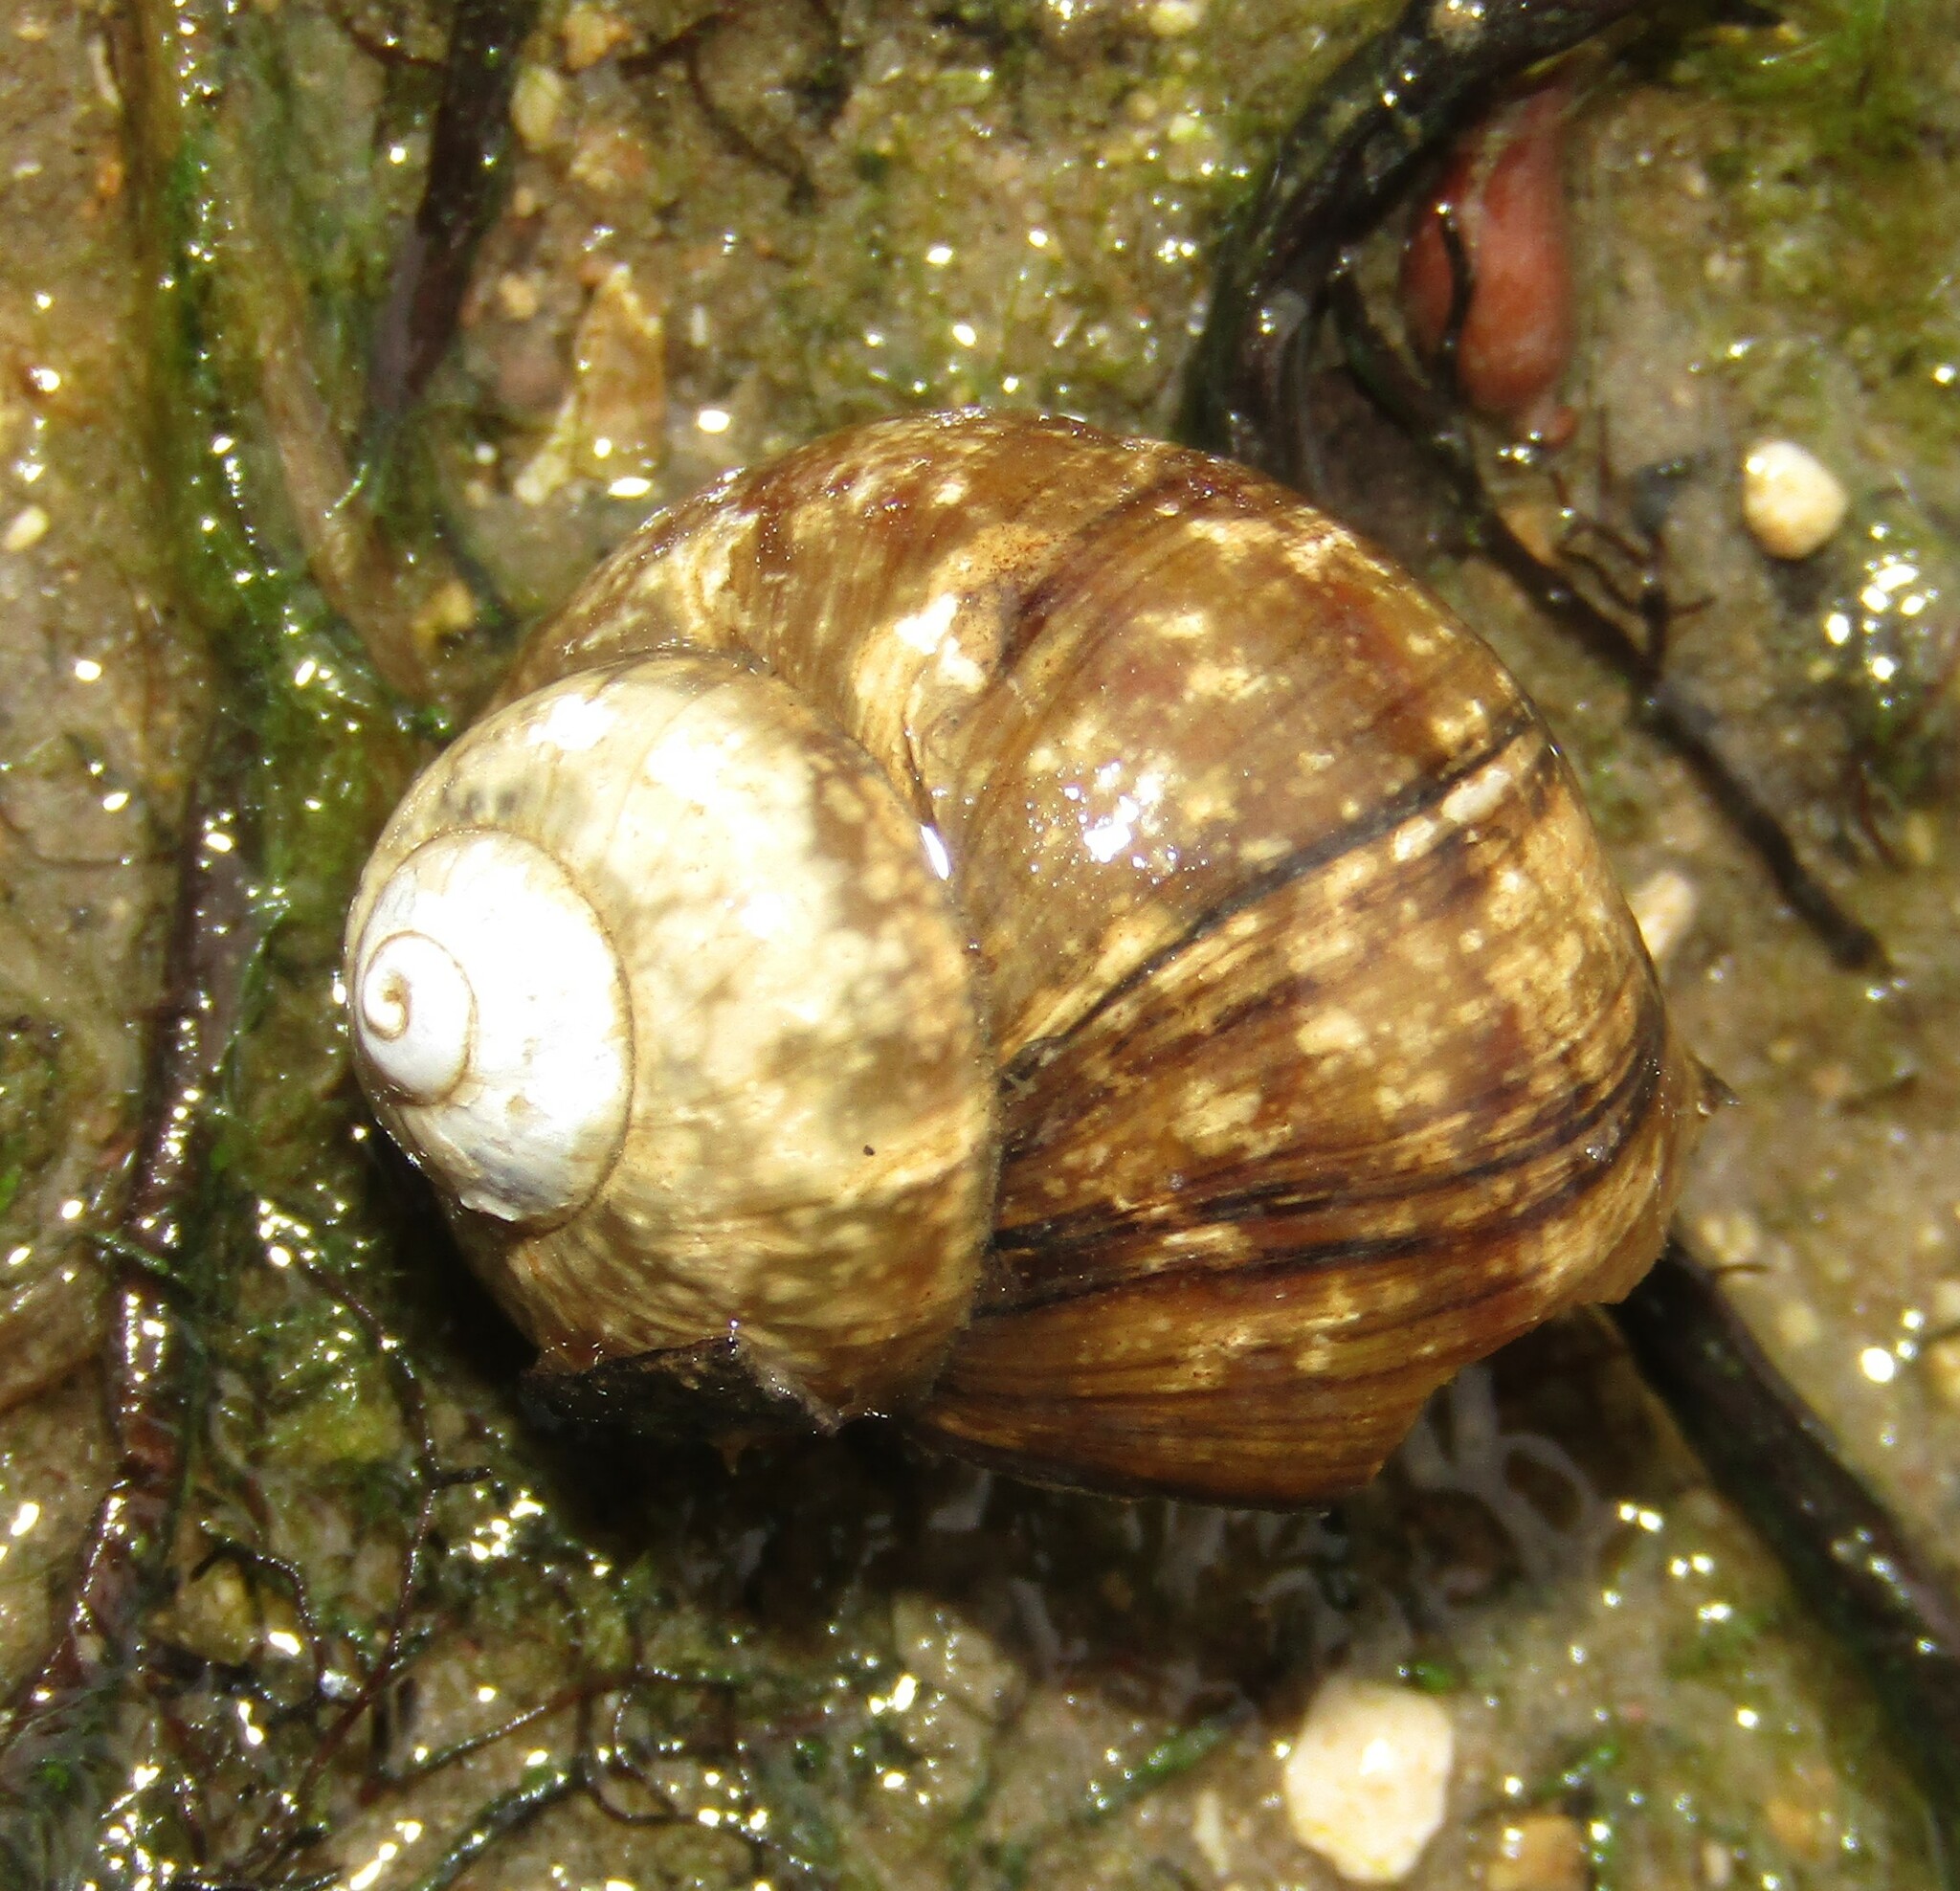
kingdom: Animalia
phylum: Mollusca
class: Gastropoda
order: Architaenioglossa
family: Viviparidae
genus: Viviparus
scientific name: Viviparus viviparus
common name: River snail
